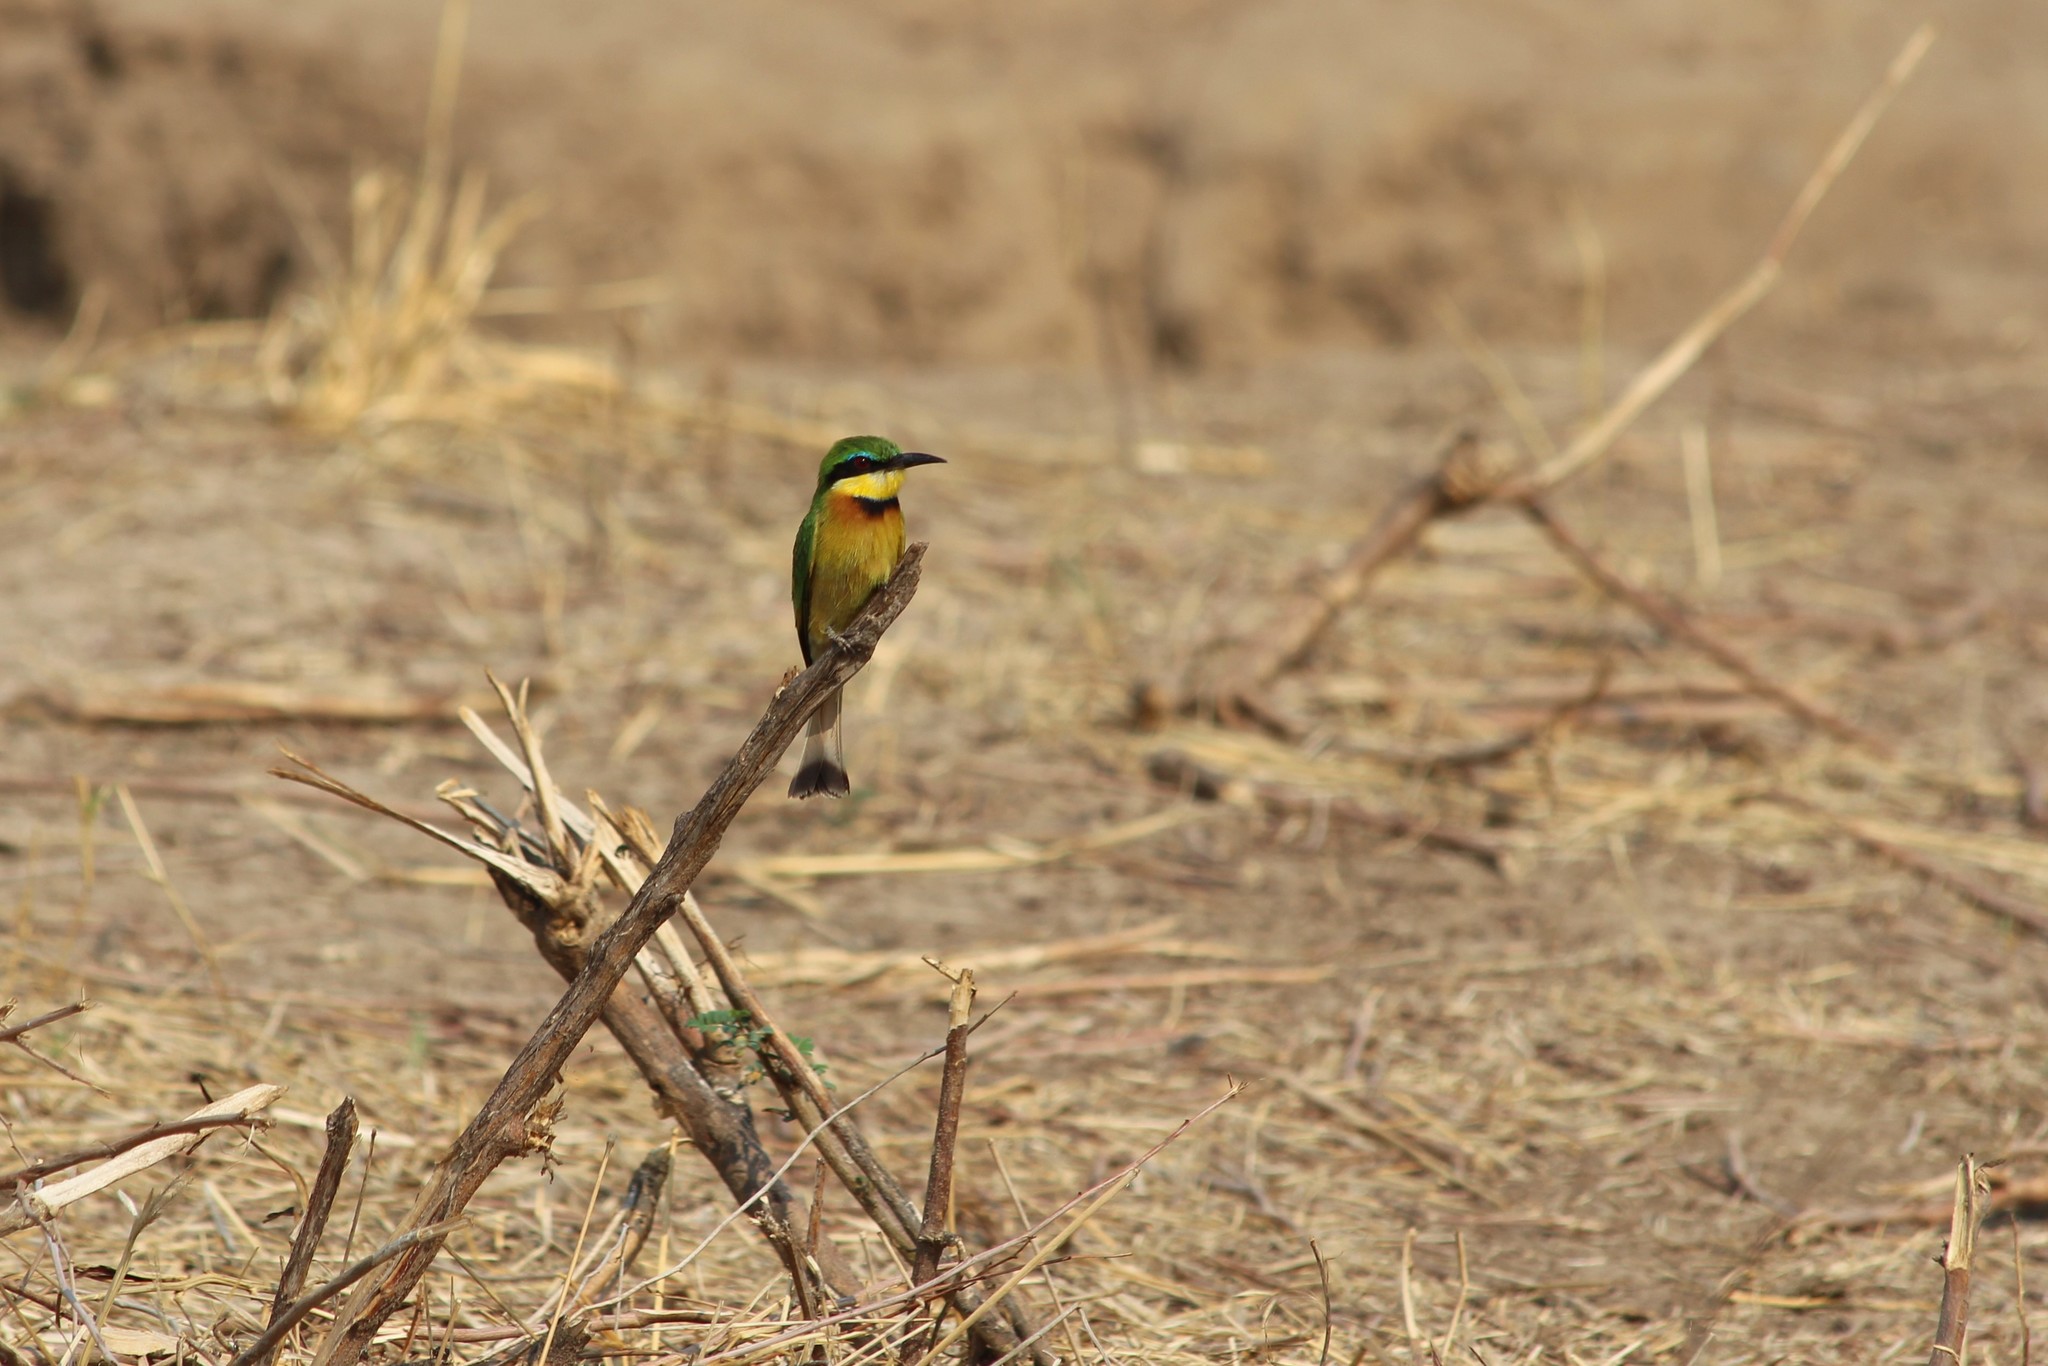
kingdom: Animalia
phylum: Chordata
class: Aves
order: Coraciiformes
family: Meropidae
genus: Merops
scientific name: Merops pusillus
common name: Little bee-eater
